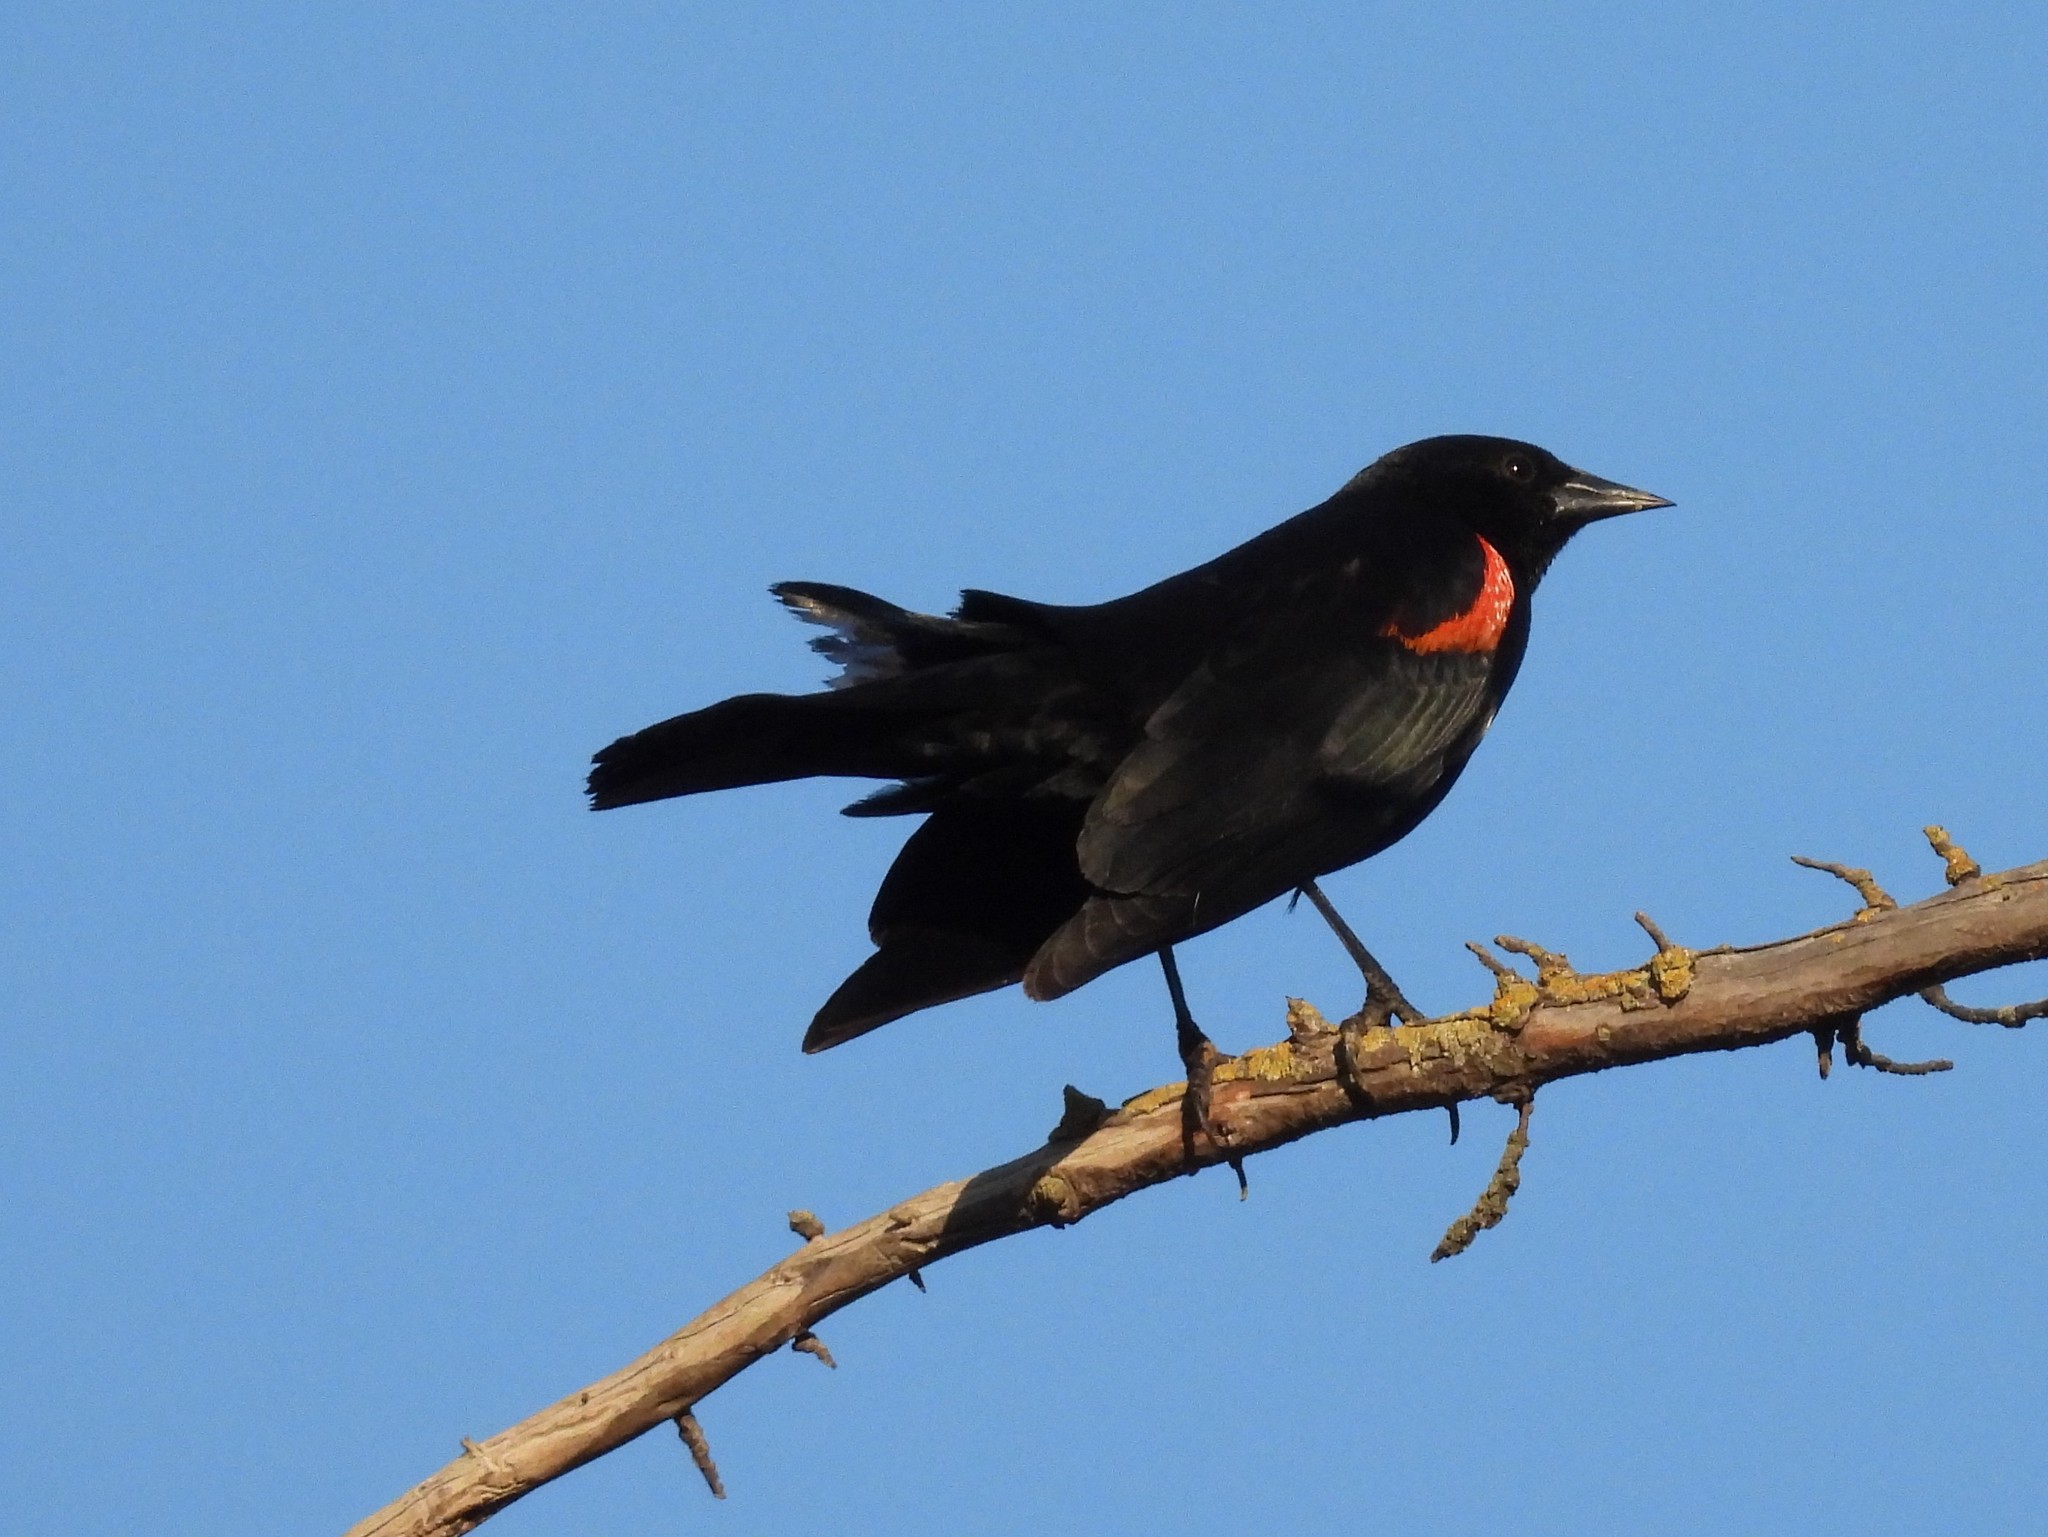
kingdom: Animalia
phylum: Chordata
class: Aves
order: Passeriformes
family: Icteridae
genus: Agelaius
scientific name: Agelaius phoeniceus
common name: Red-winged blackbird
